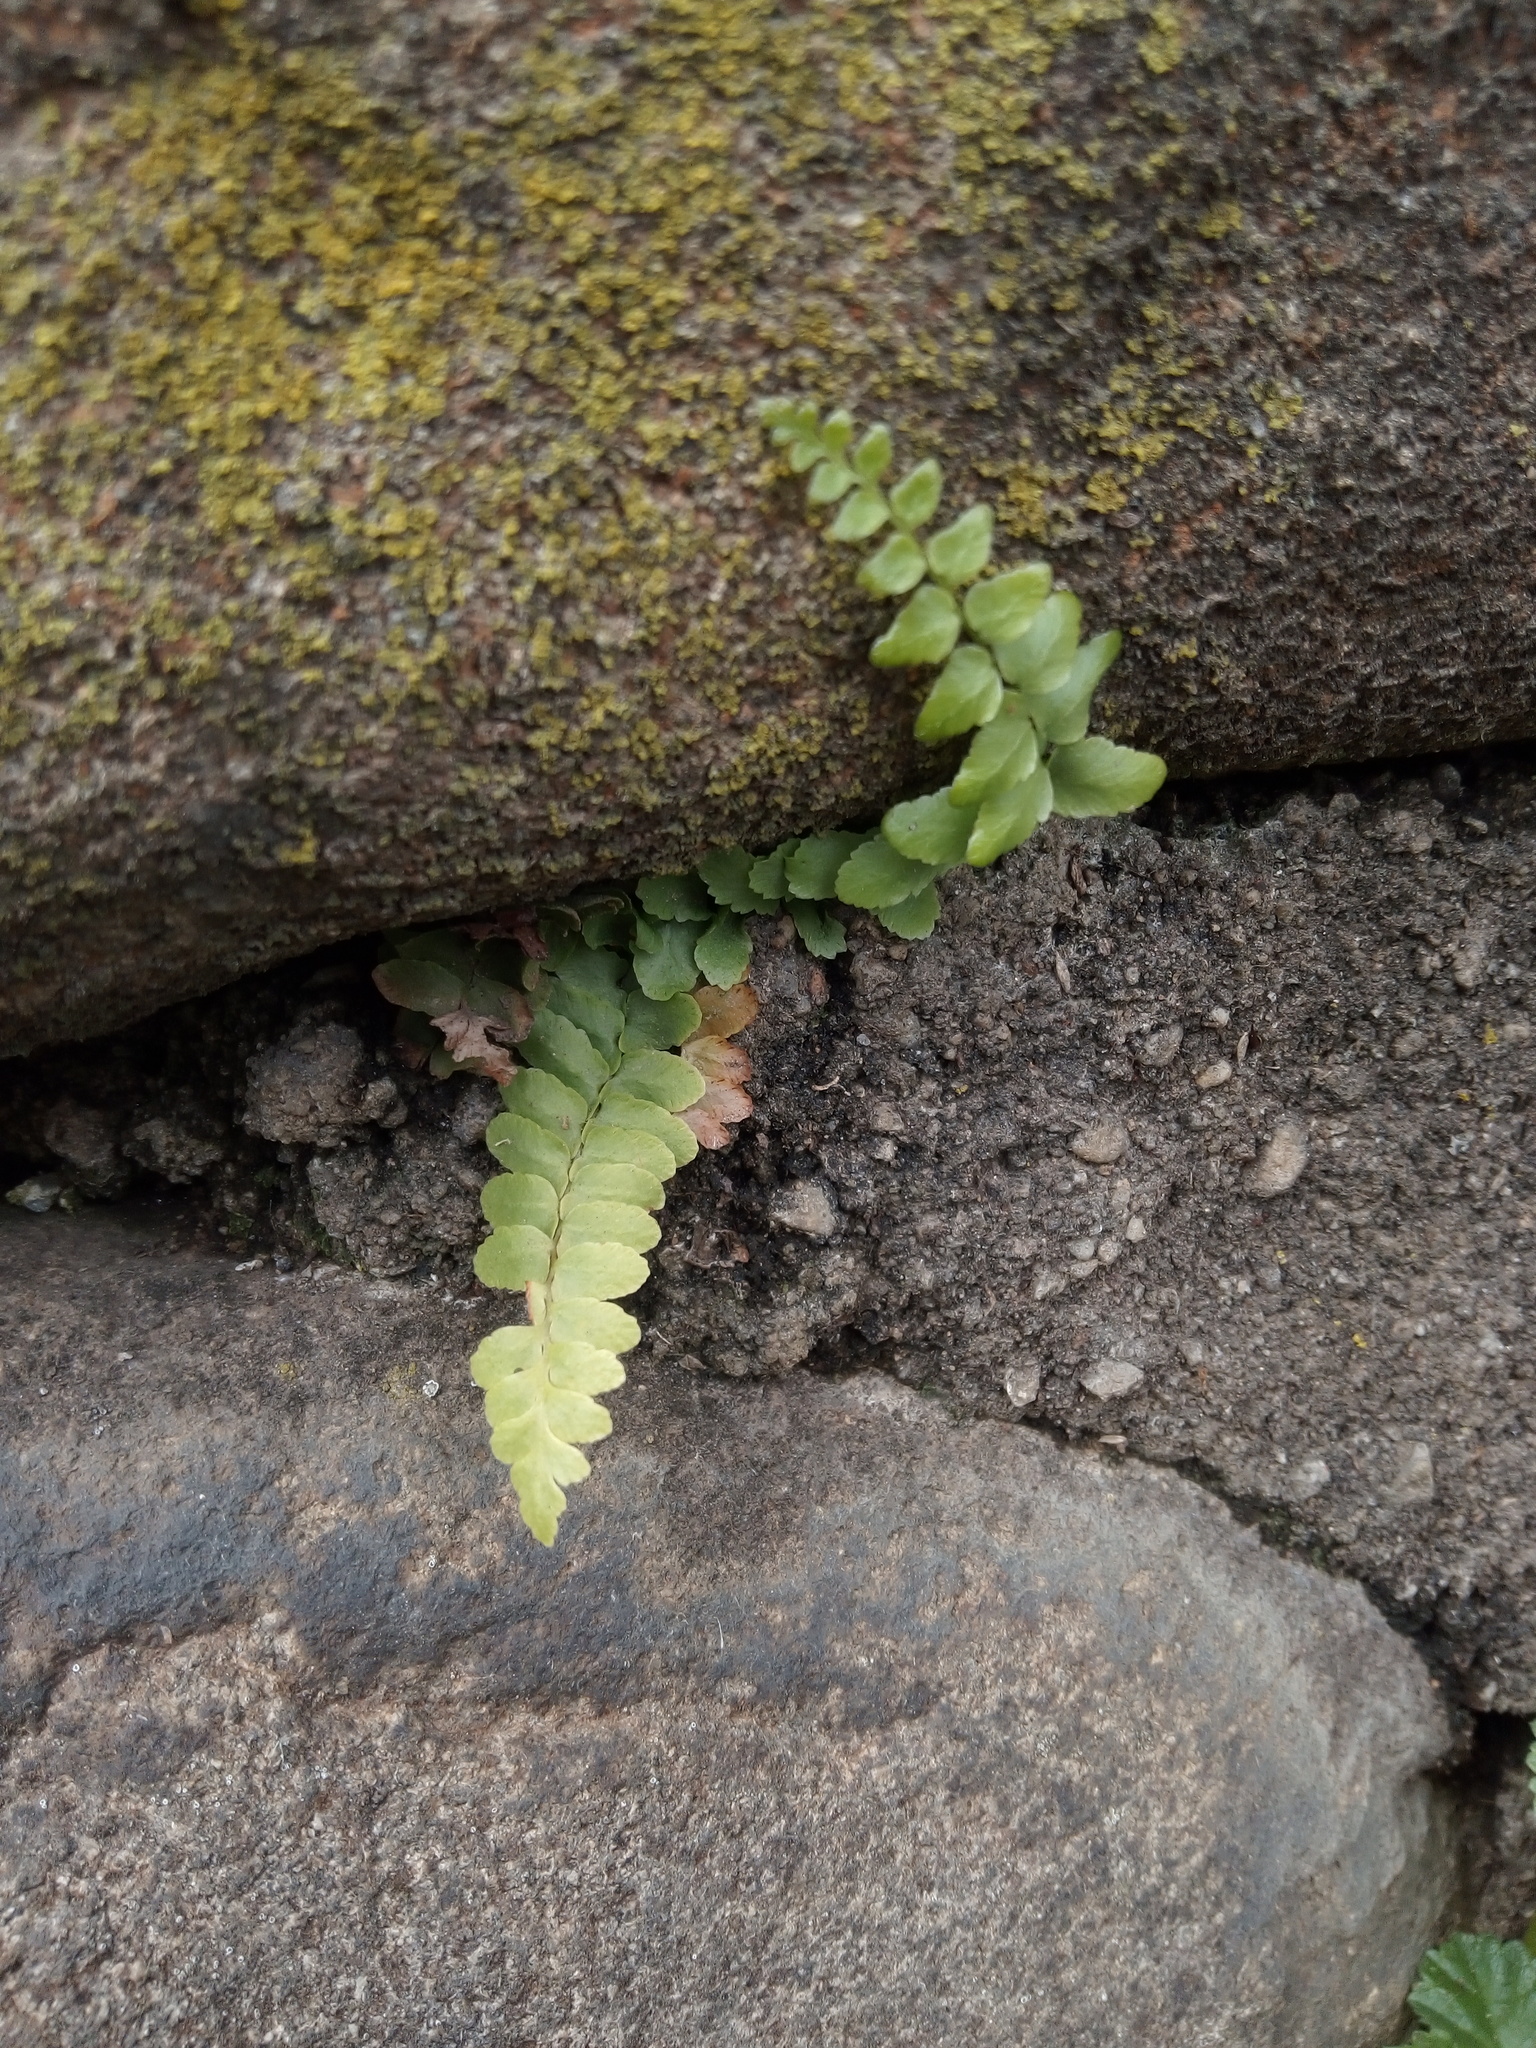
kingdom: Plantae
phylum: Tracheophyta
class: Polypodiopsida
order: Polypodiales
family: Aspleniaceae
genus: Asplenium
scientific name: Asplenium platyneuron
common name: Ebony spleenwort
